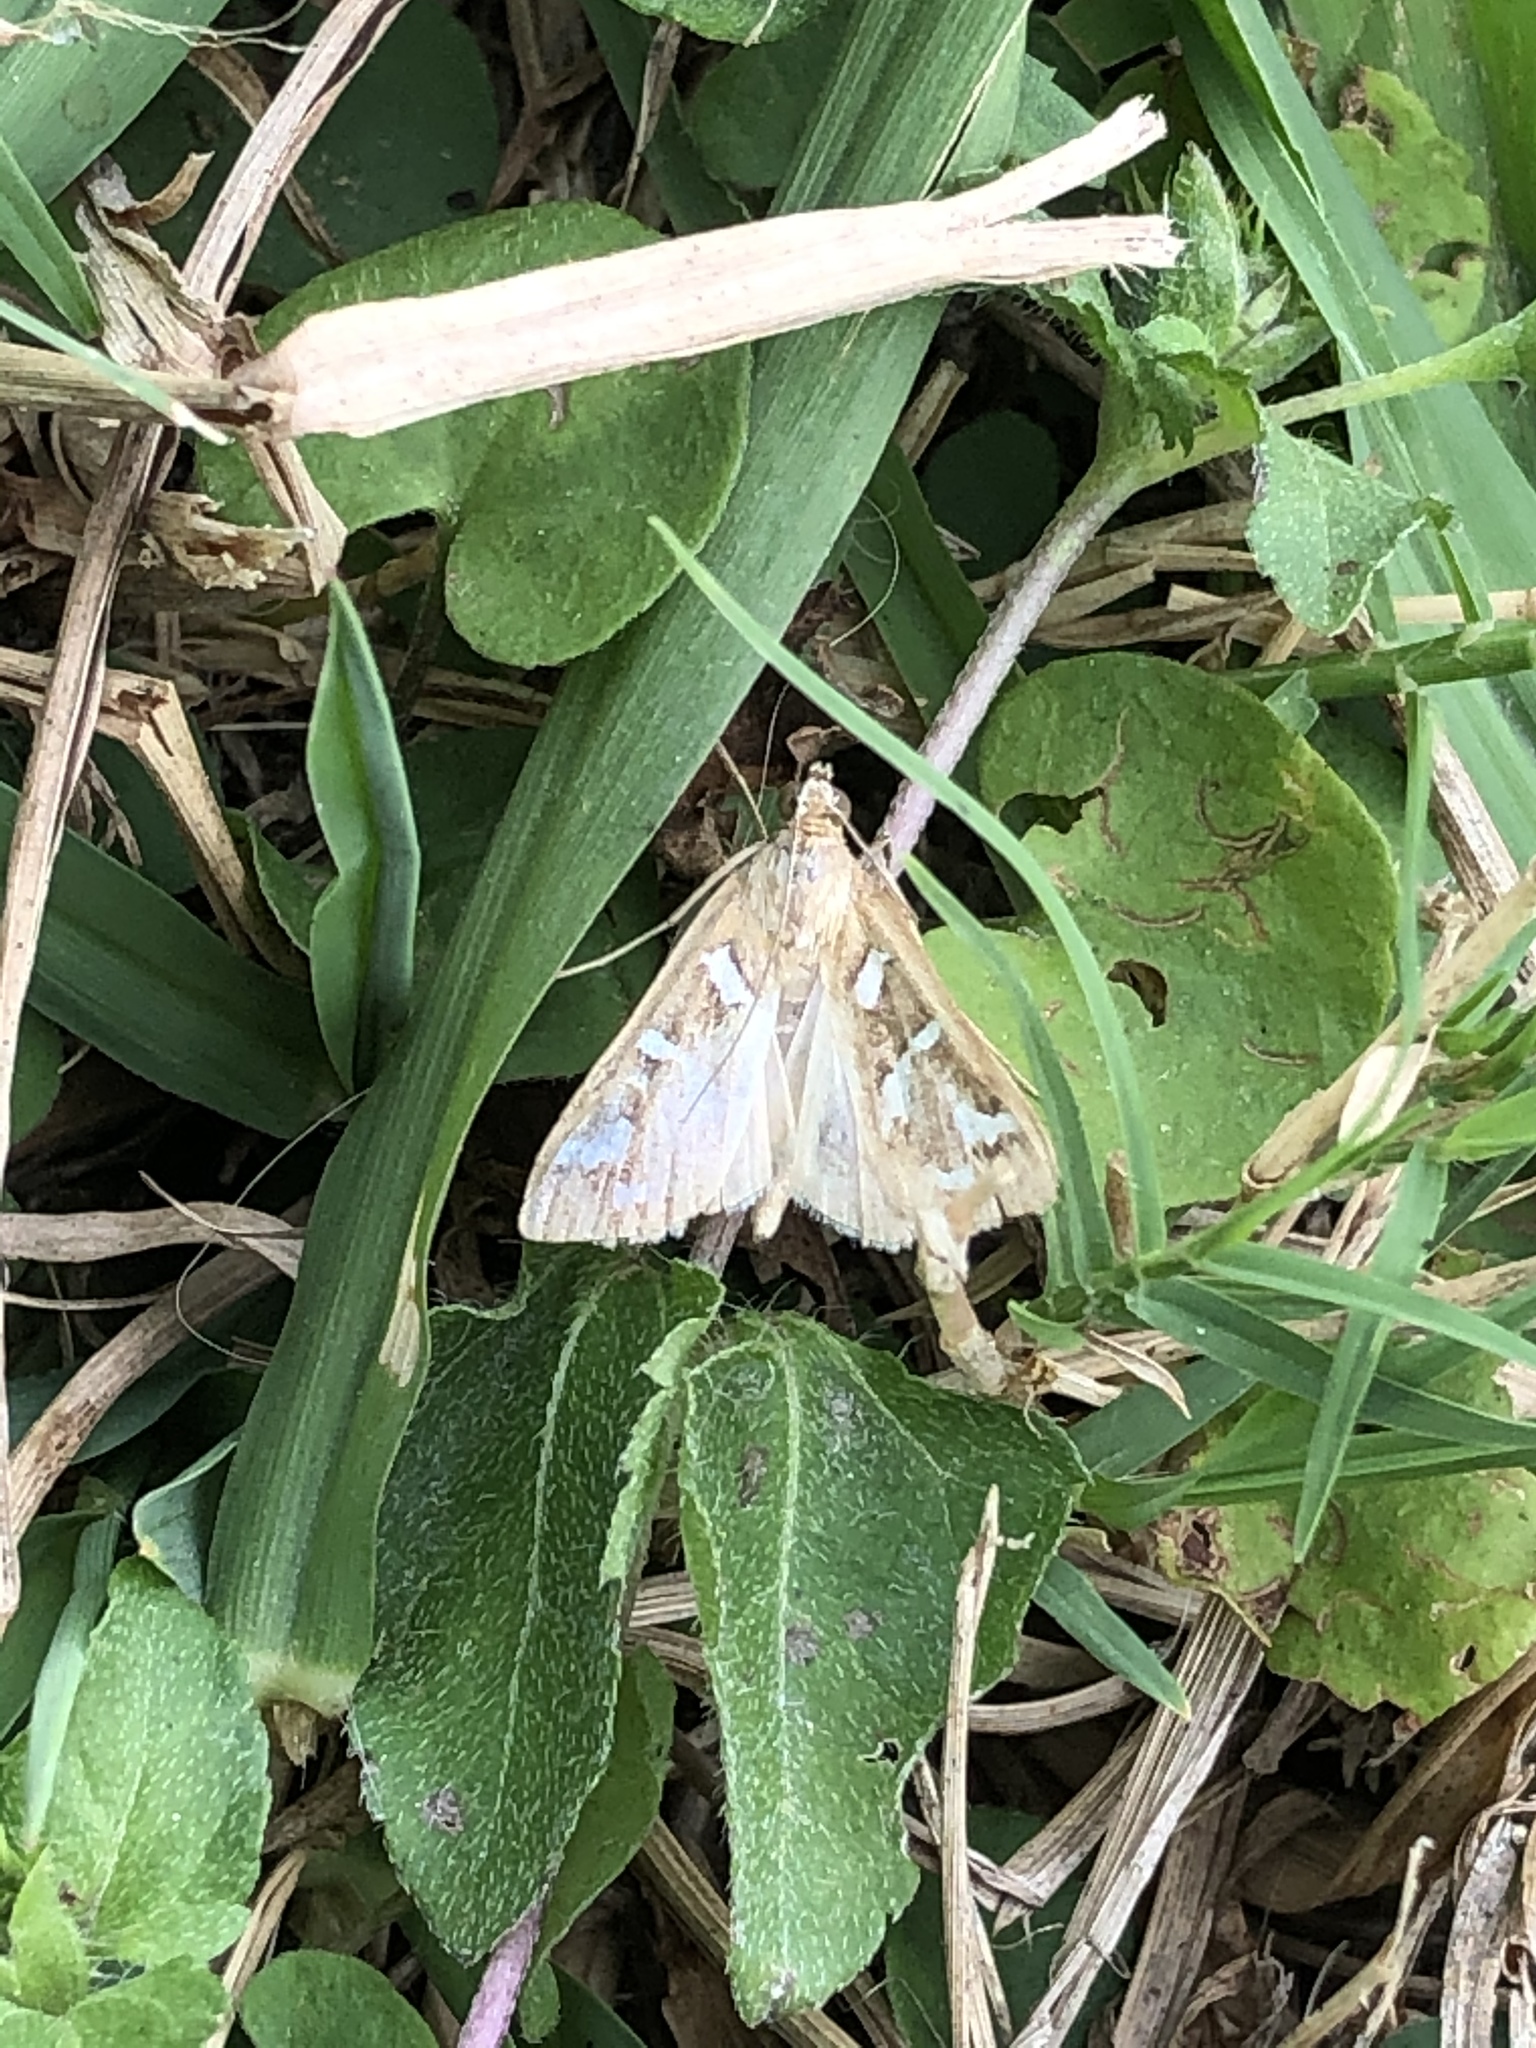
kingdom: Animalia
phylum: Arthropoda
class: Insecta
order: Lepidoptera
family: Crambidae
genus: Diastictis
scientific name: Diastictis fracturalis
